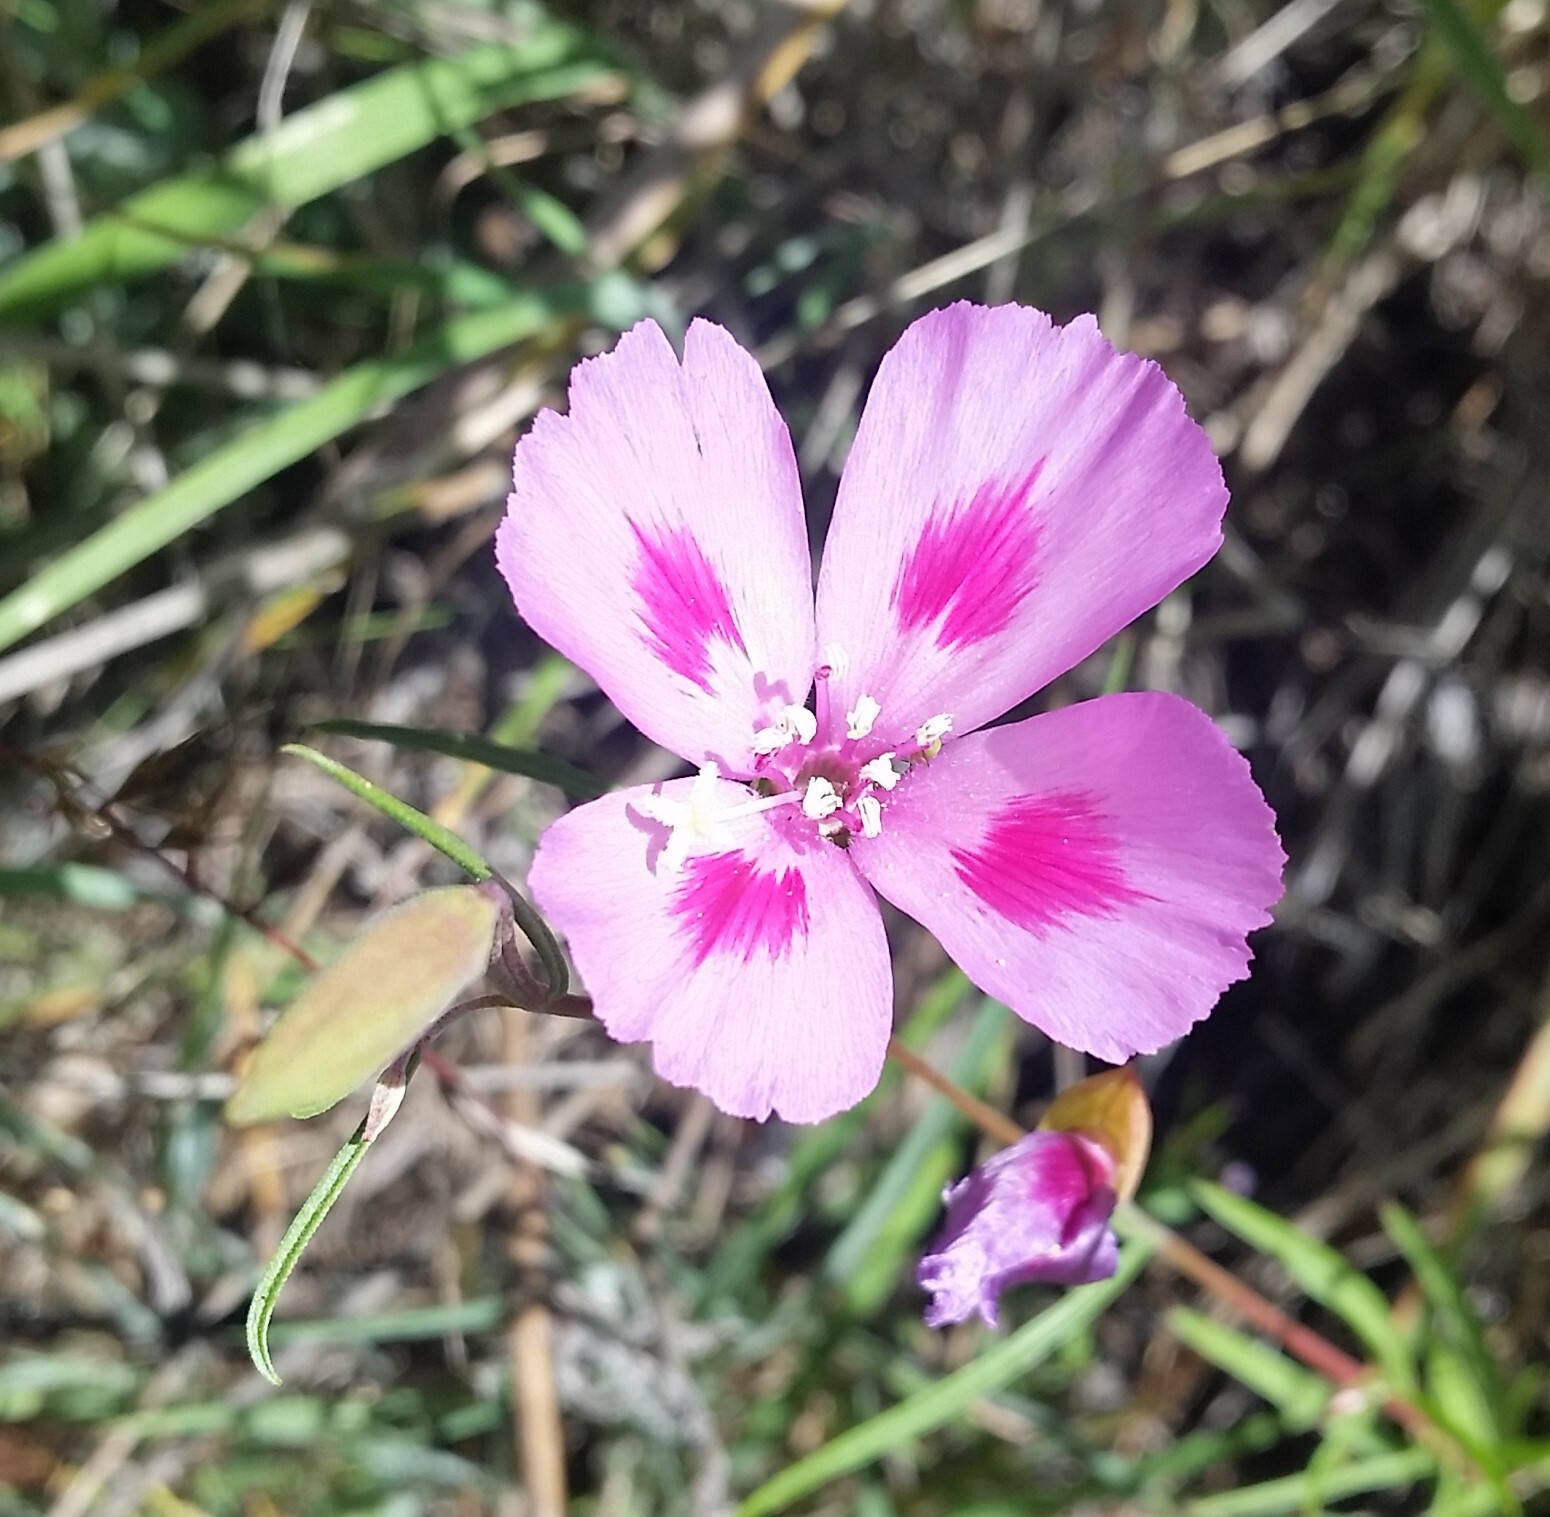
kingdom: Plantae
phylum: Tracheophyta
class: Magnoliopsida
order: Myrtales
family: Onagraceae
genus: Clarkia
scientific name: Clarkia amoena
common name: Godetia
